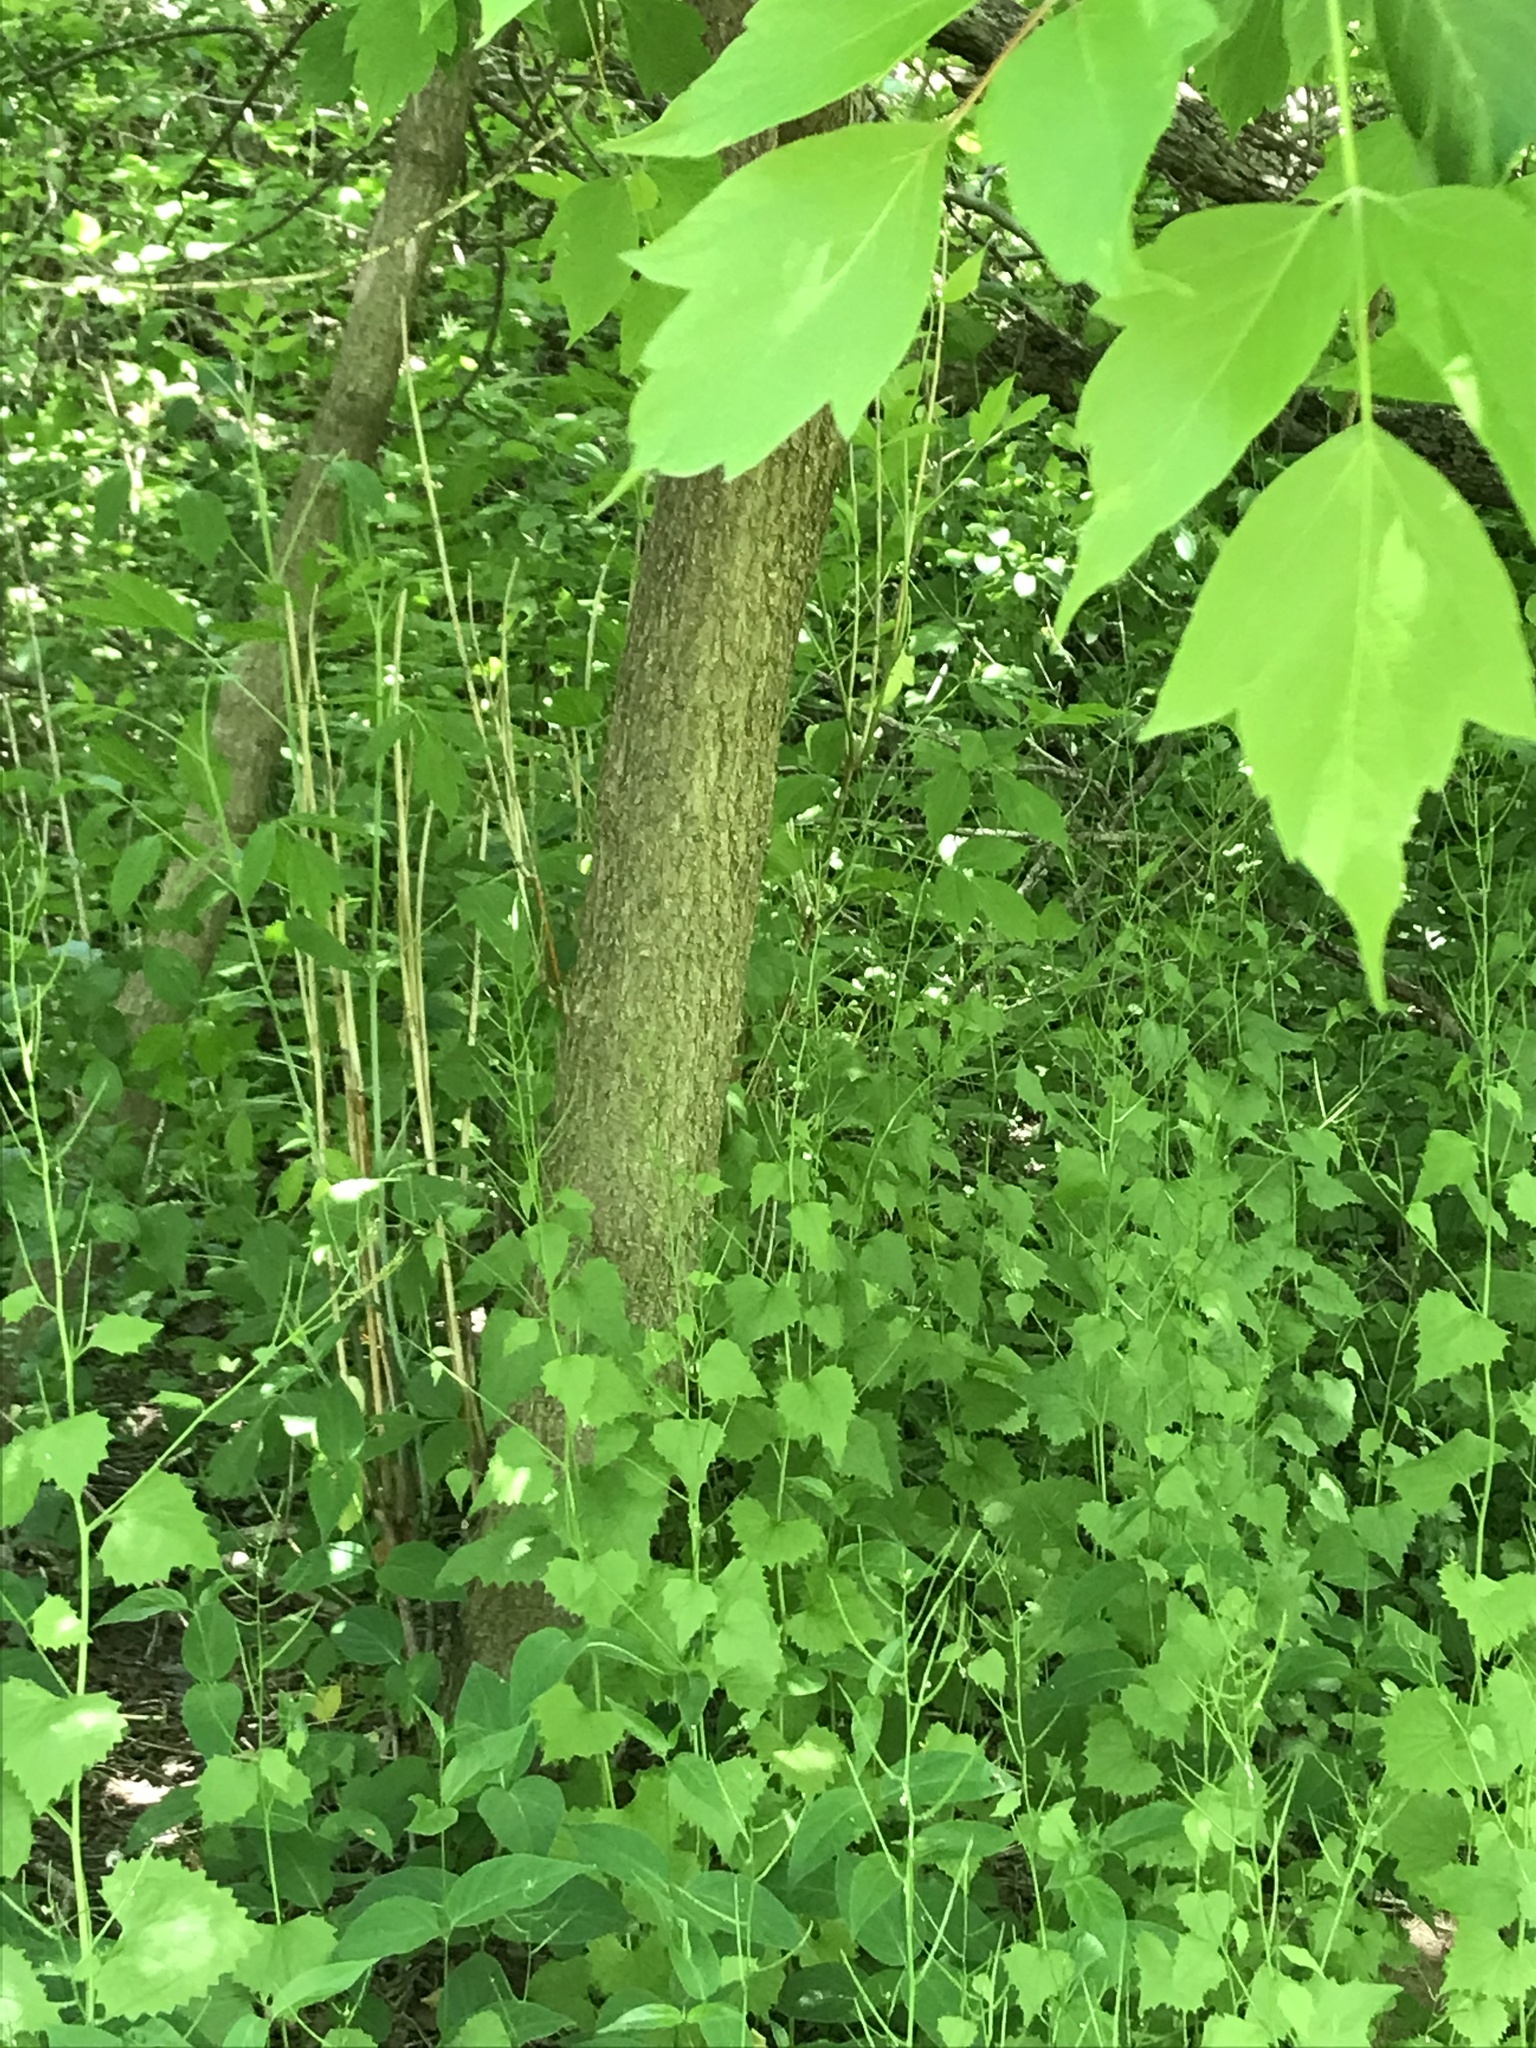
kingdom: Plantae
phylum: Tracheophyta
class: Magnoliopsida
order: Sapindales
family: Sapindaceae
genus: Acer
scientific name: Acer negundo
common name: Ashleaf maple
